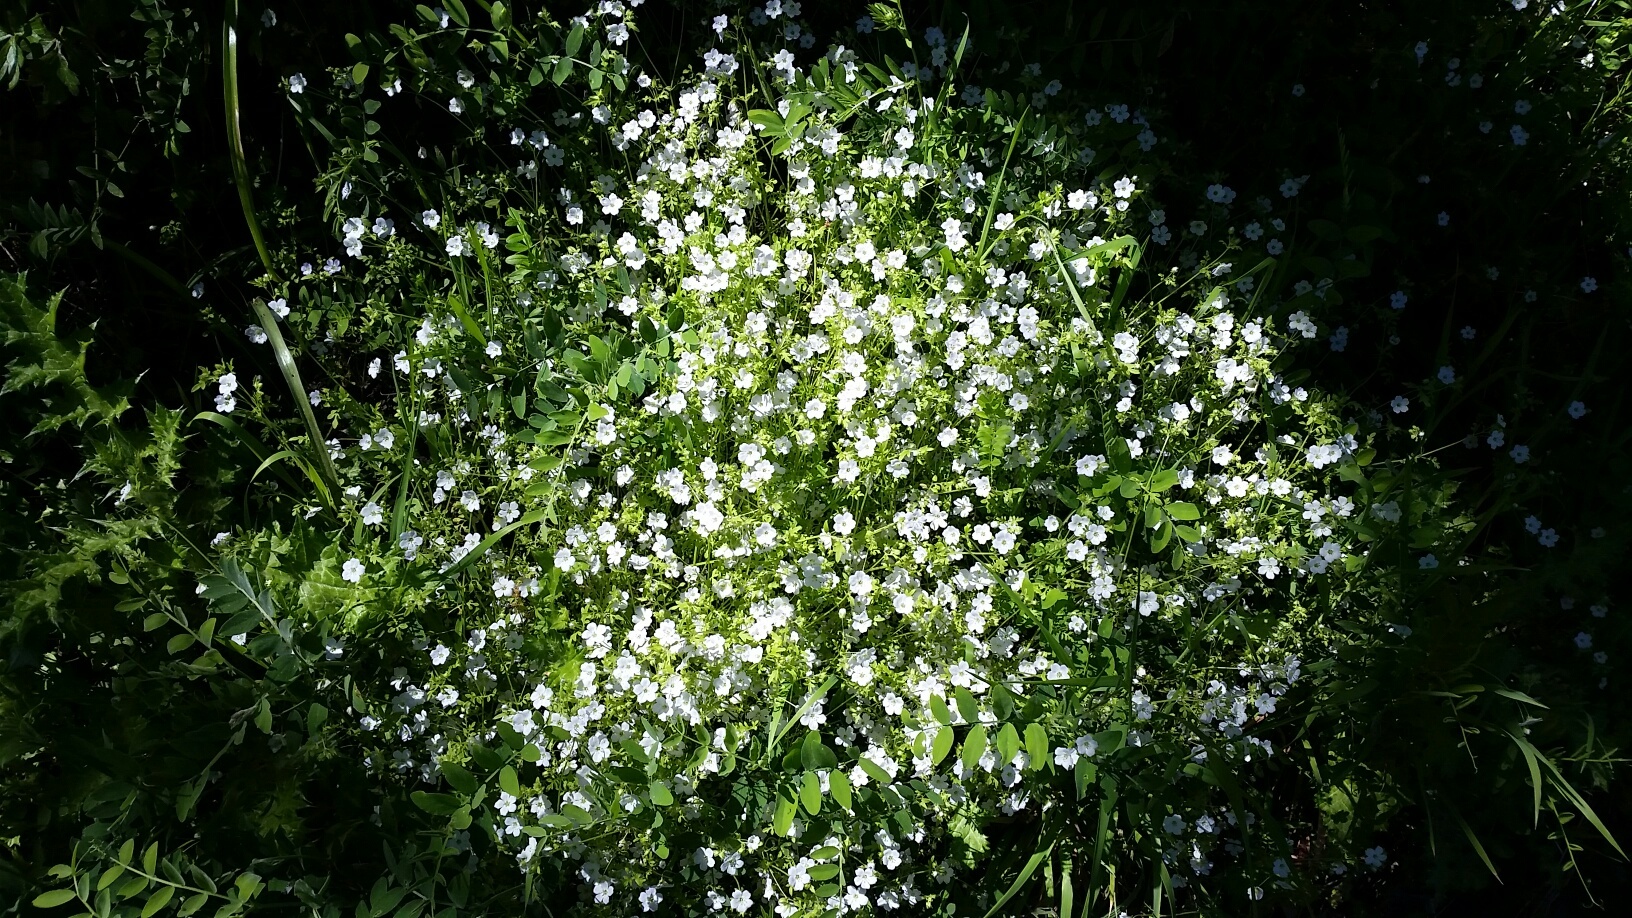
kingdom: Plantae
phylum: Tracheophyta
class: Magnoliopsida
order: Boraginales
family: Hydrophyllaceae
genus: Nemophila
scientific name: Nemophila heterophylla
